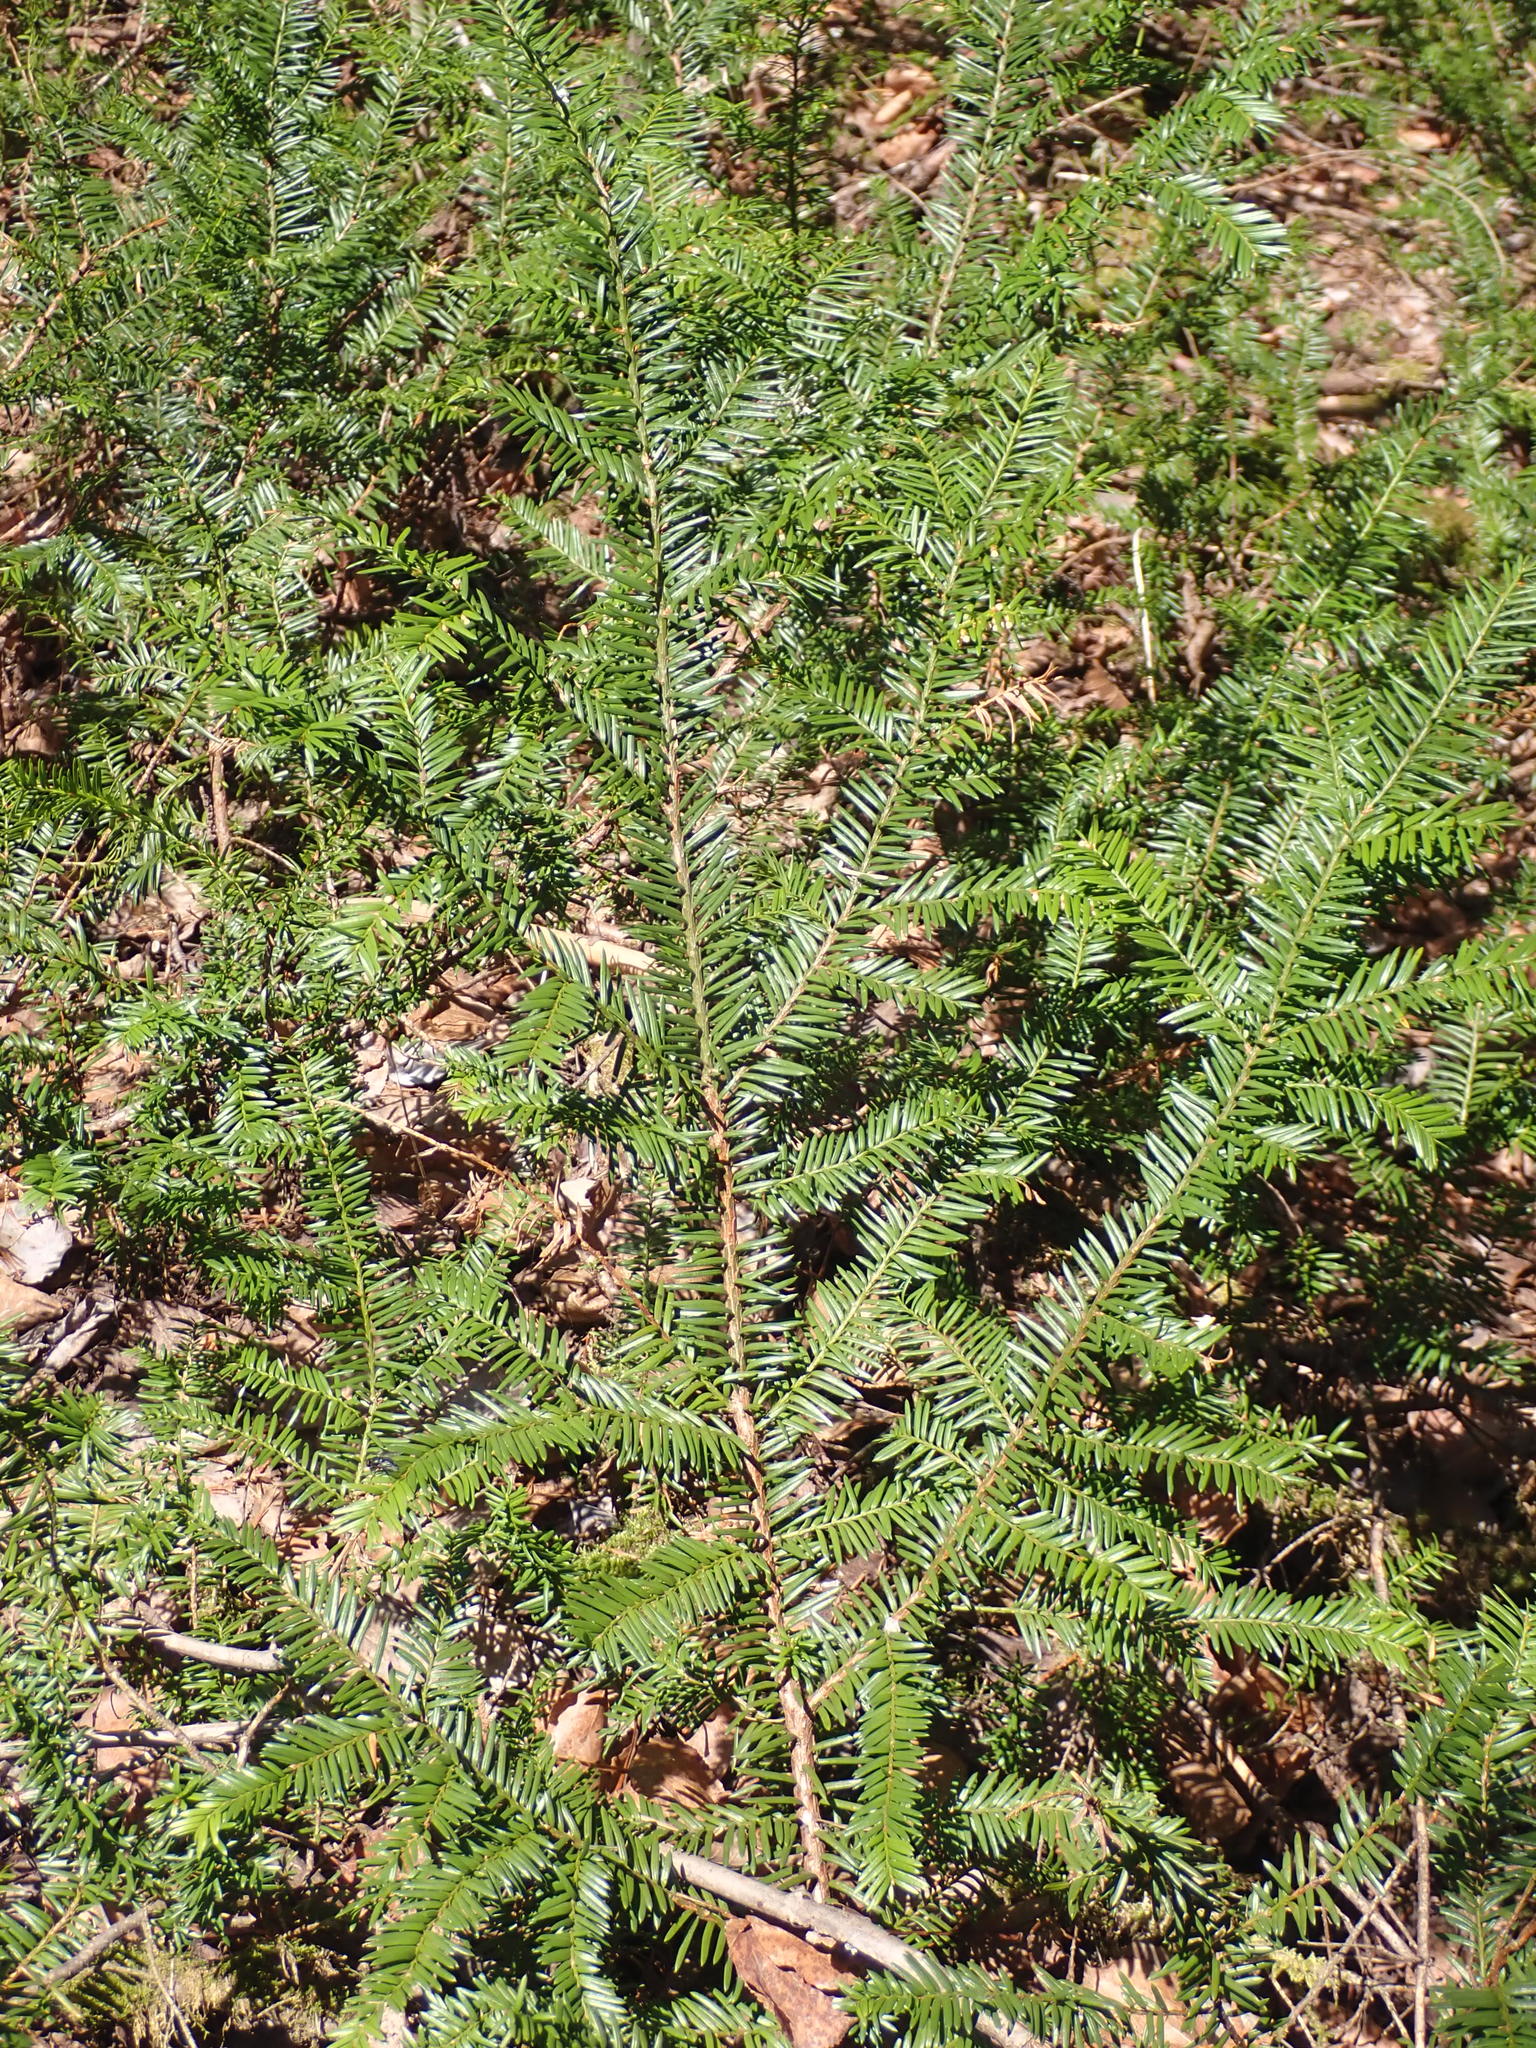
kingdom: Plantae
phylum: Tracheophyta
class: Pinopsida
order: Pinales
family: Taxaceae
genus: Taxus
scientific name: Taxus canadensis
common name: American yew
